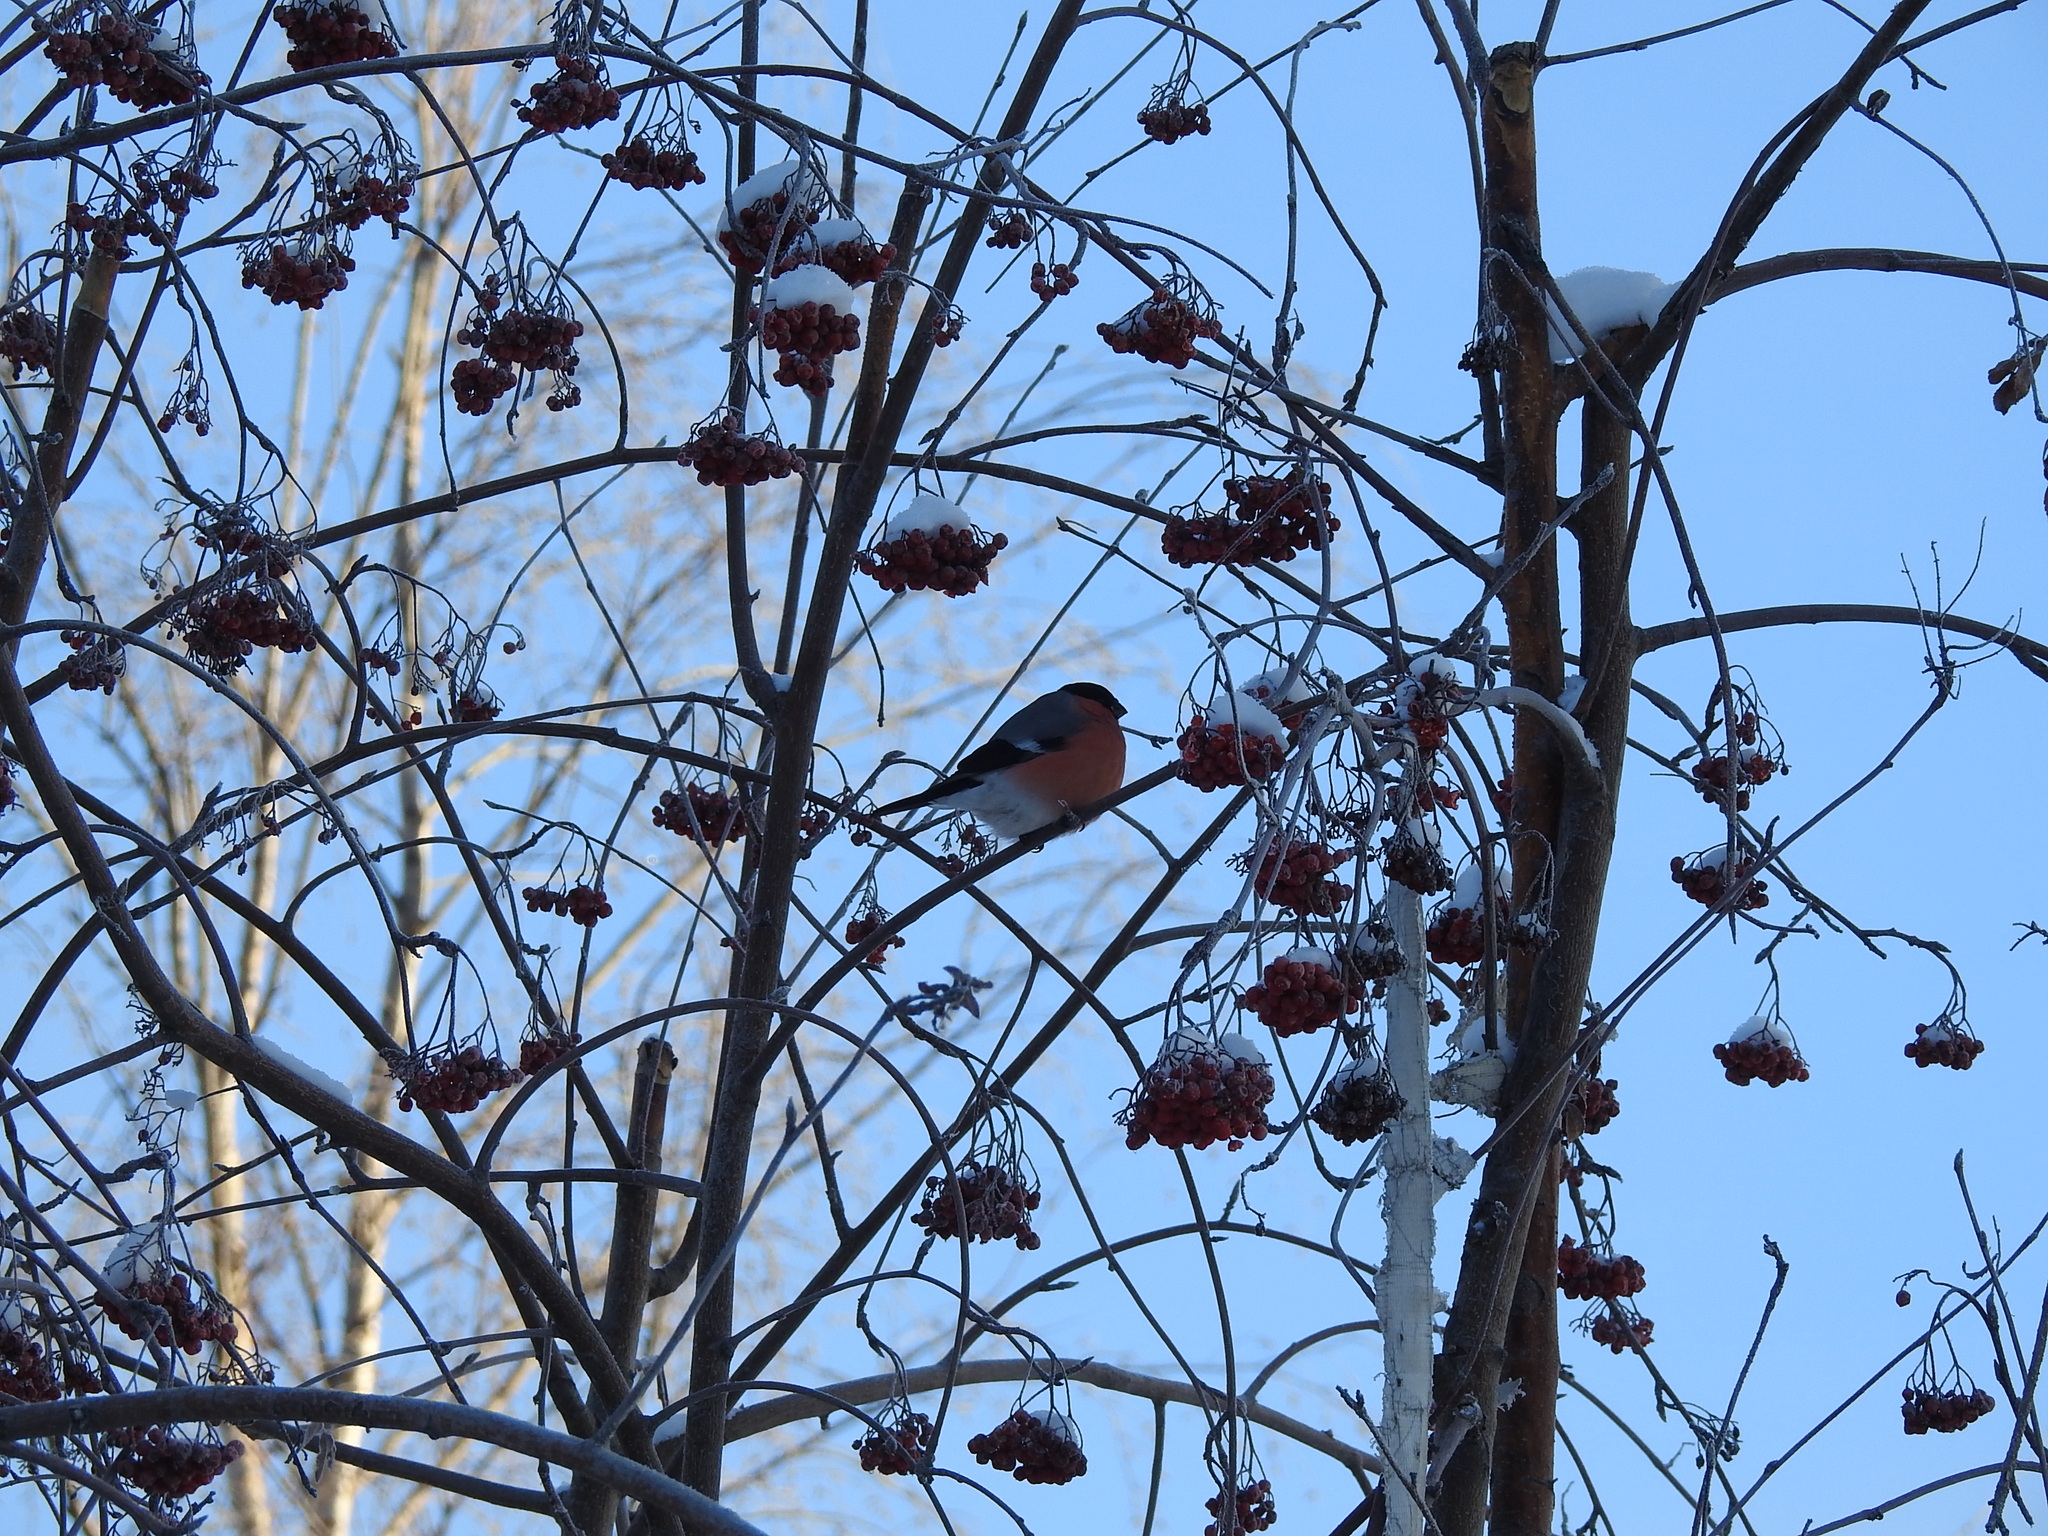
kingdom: Animalia
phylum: Chordata
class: Aves
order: Passeriformes
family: Fringillidae
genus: Pyrrhula
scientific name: Pyrrhula pyrrhula
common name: Eurasian bullfinch
